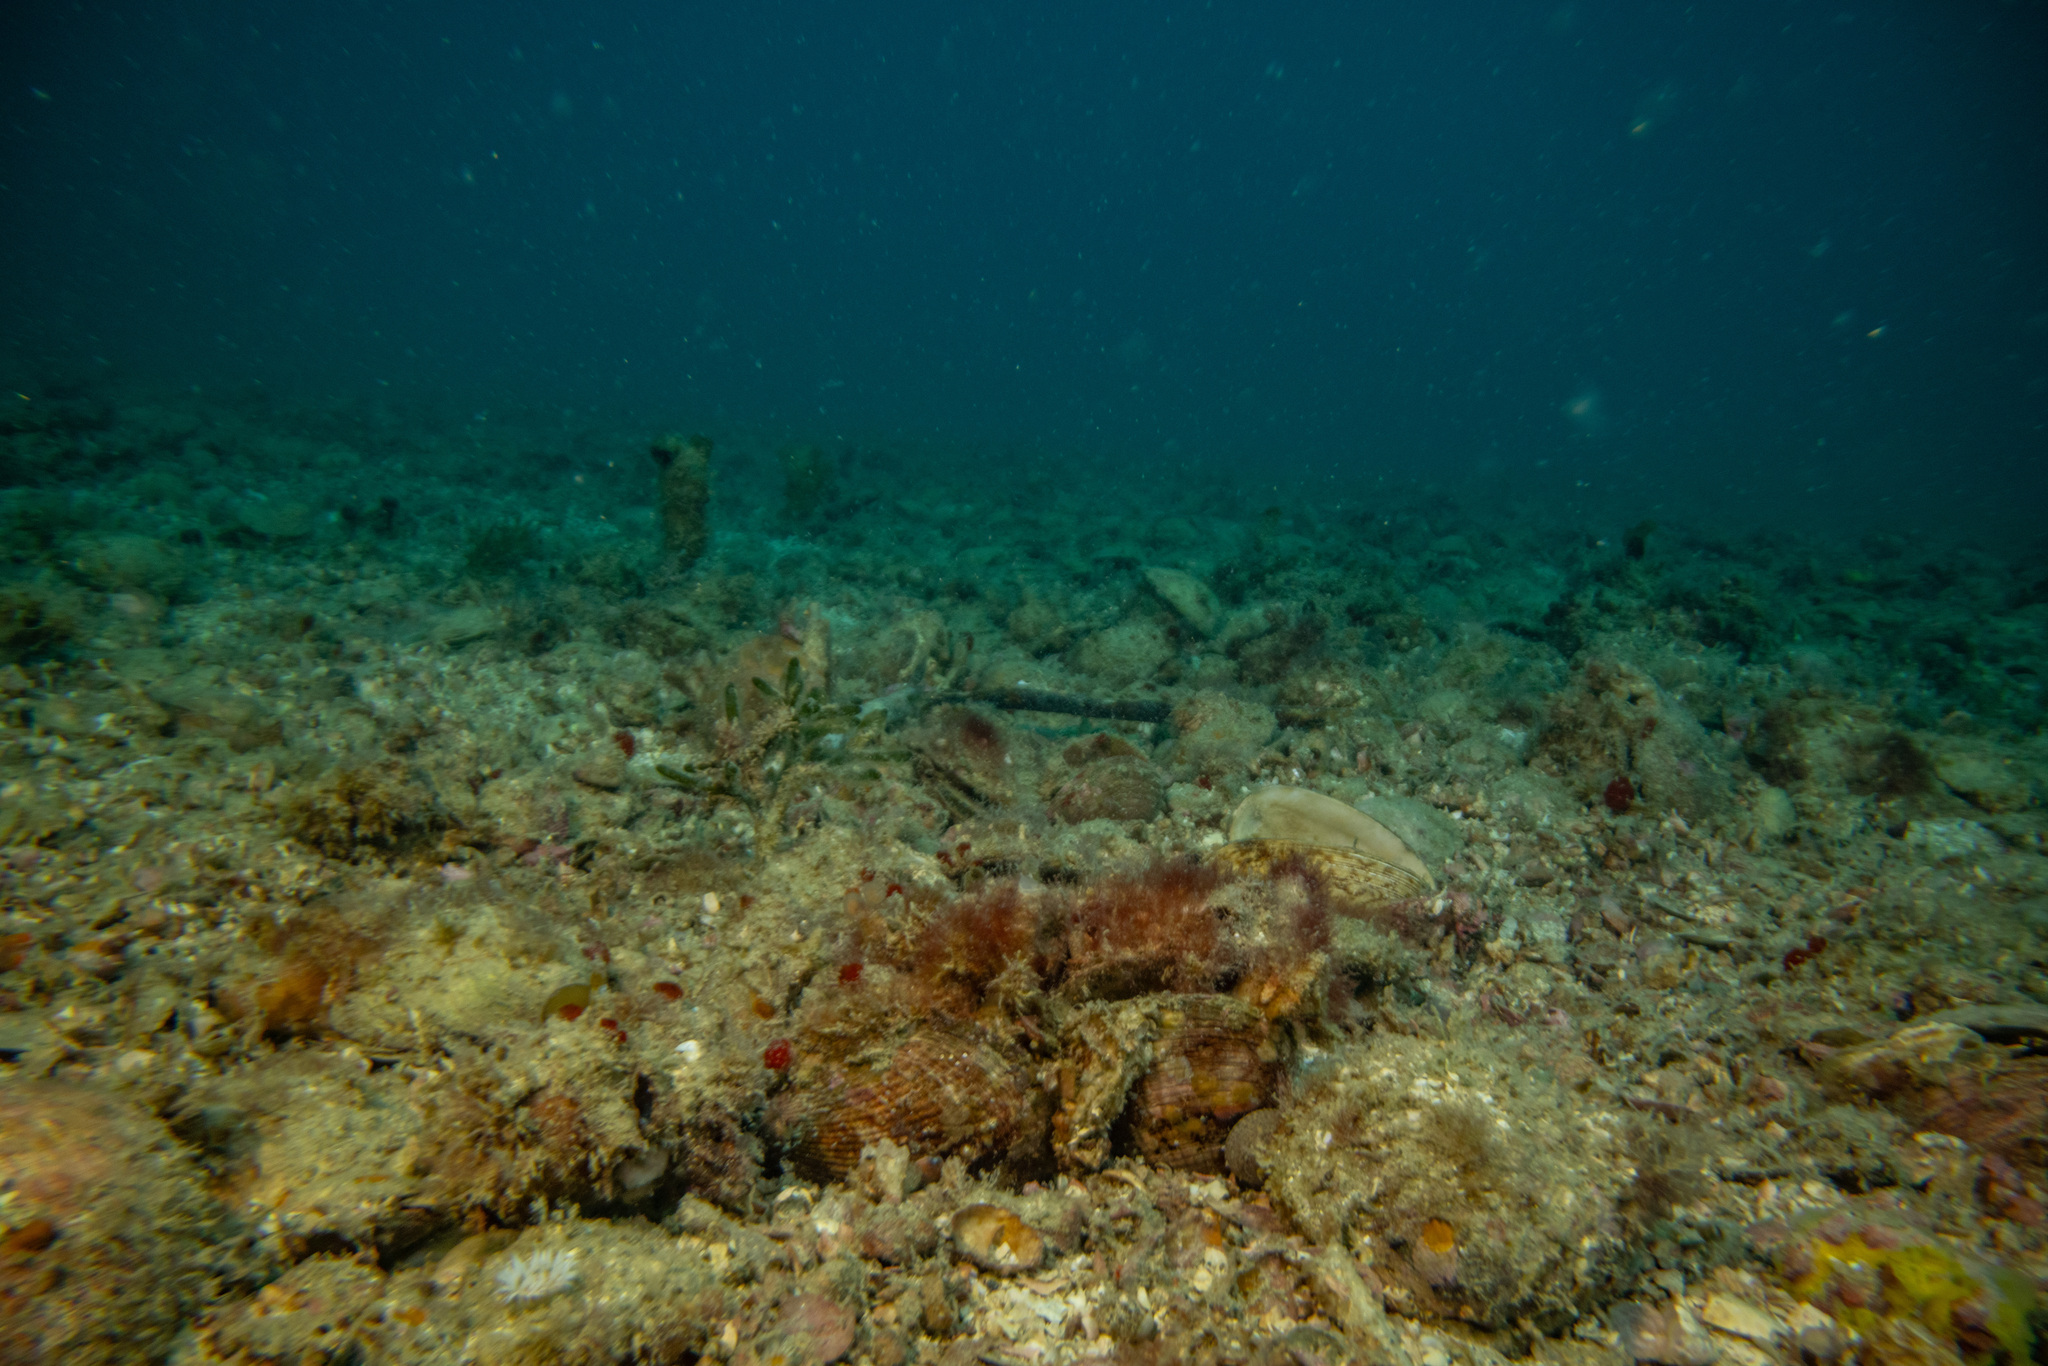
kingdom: Animalia
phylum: Mollusca
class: Bivalvia
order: Arcida
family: Glycymerididae
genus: Tucetona
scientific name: Tucetona laticostata
